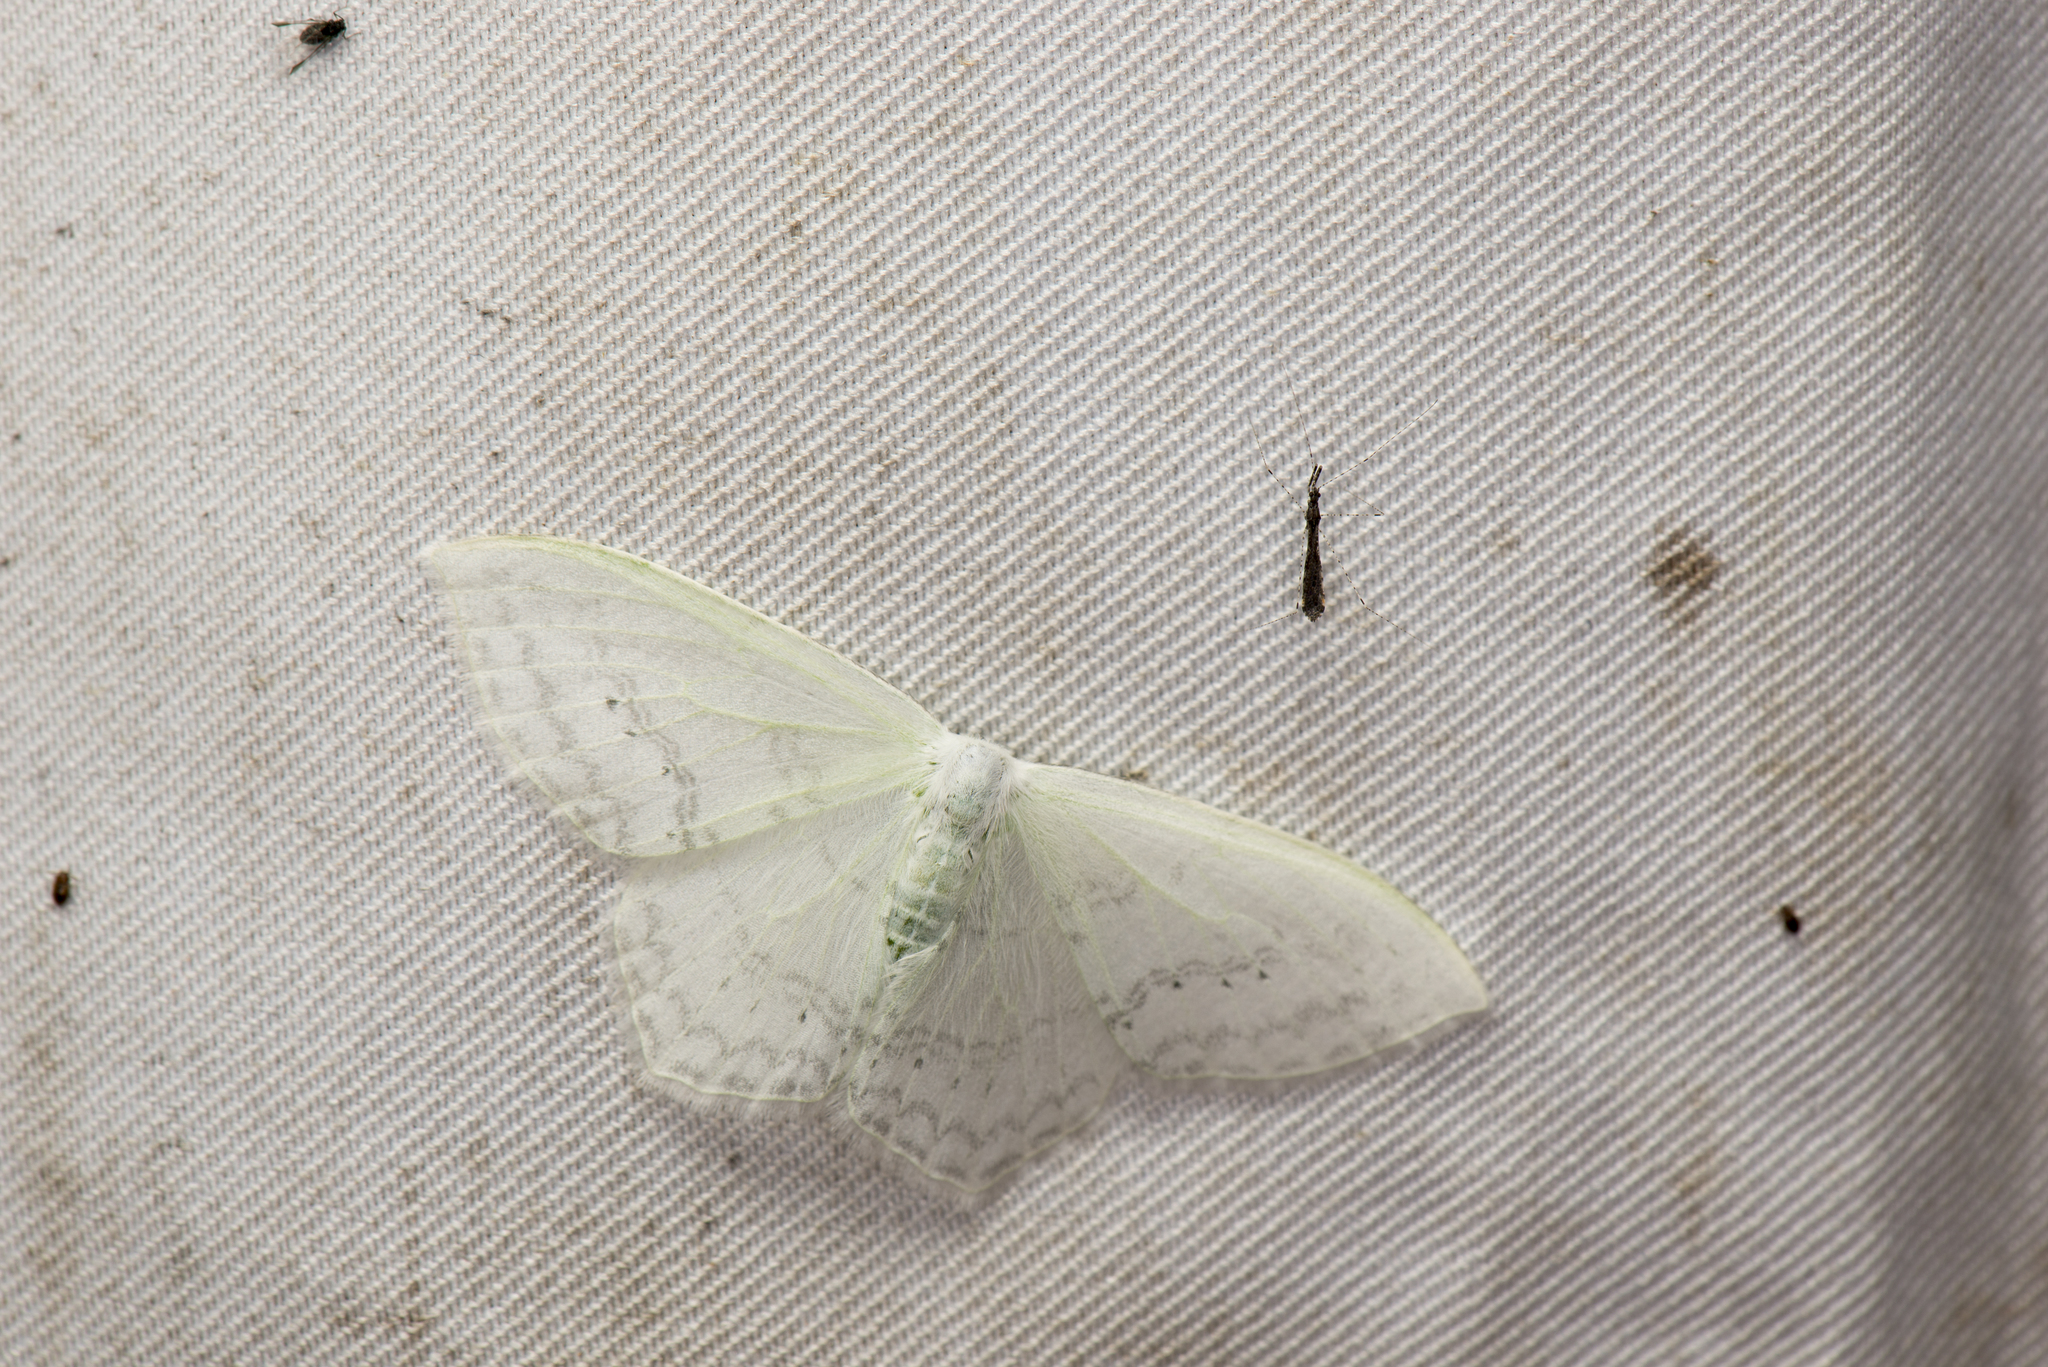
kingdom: Animalia
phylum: Arthropoda
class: Insecta
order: Lepidoptera
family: Drepanidae
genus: Auzata
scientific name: Auzata simpliciata
